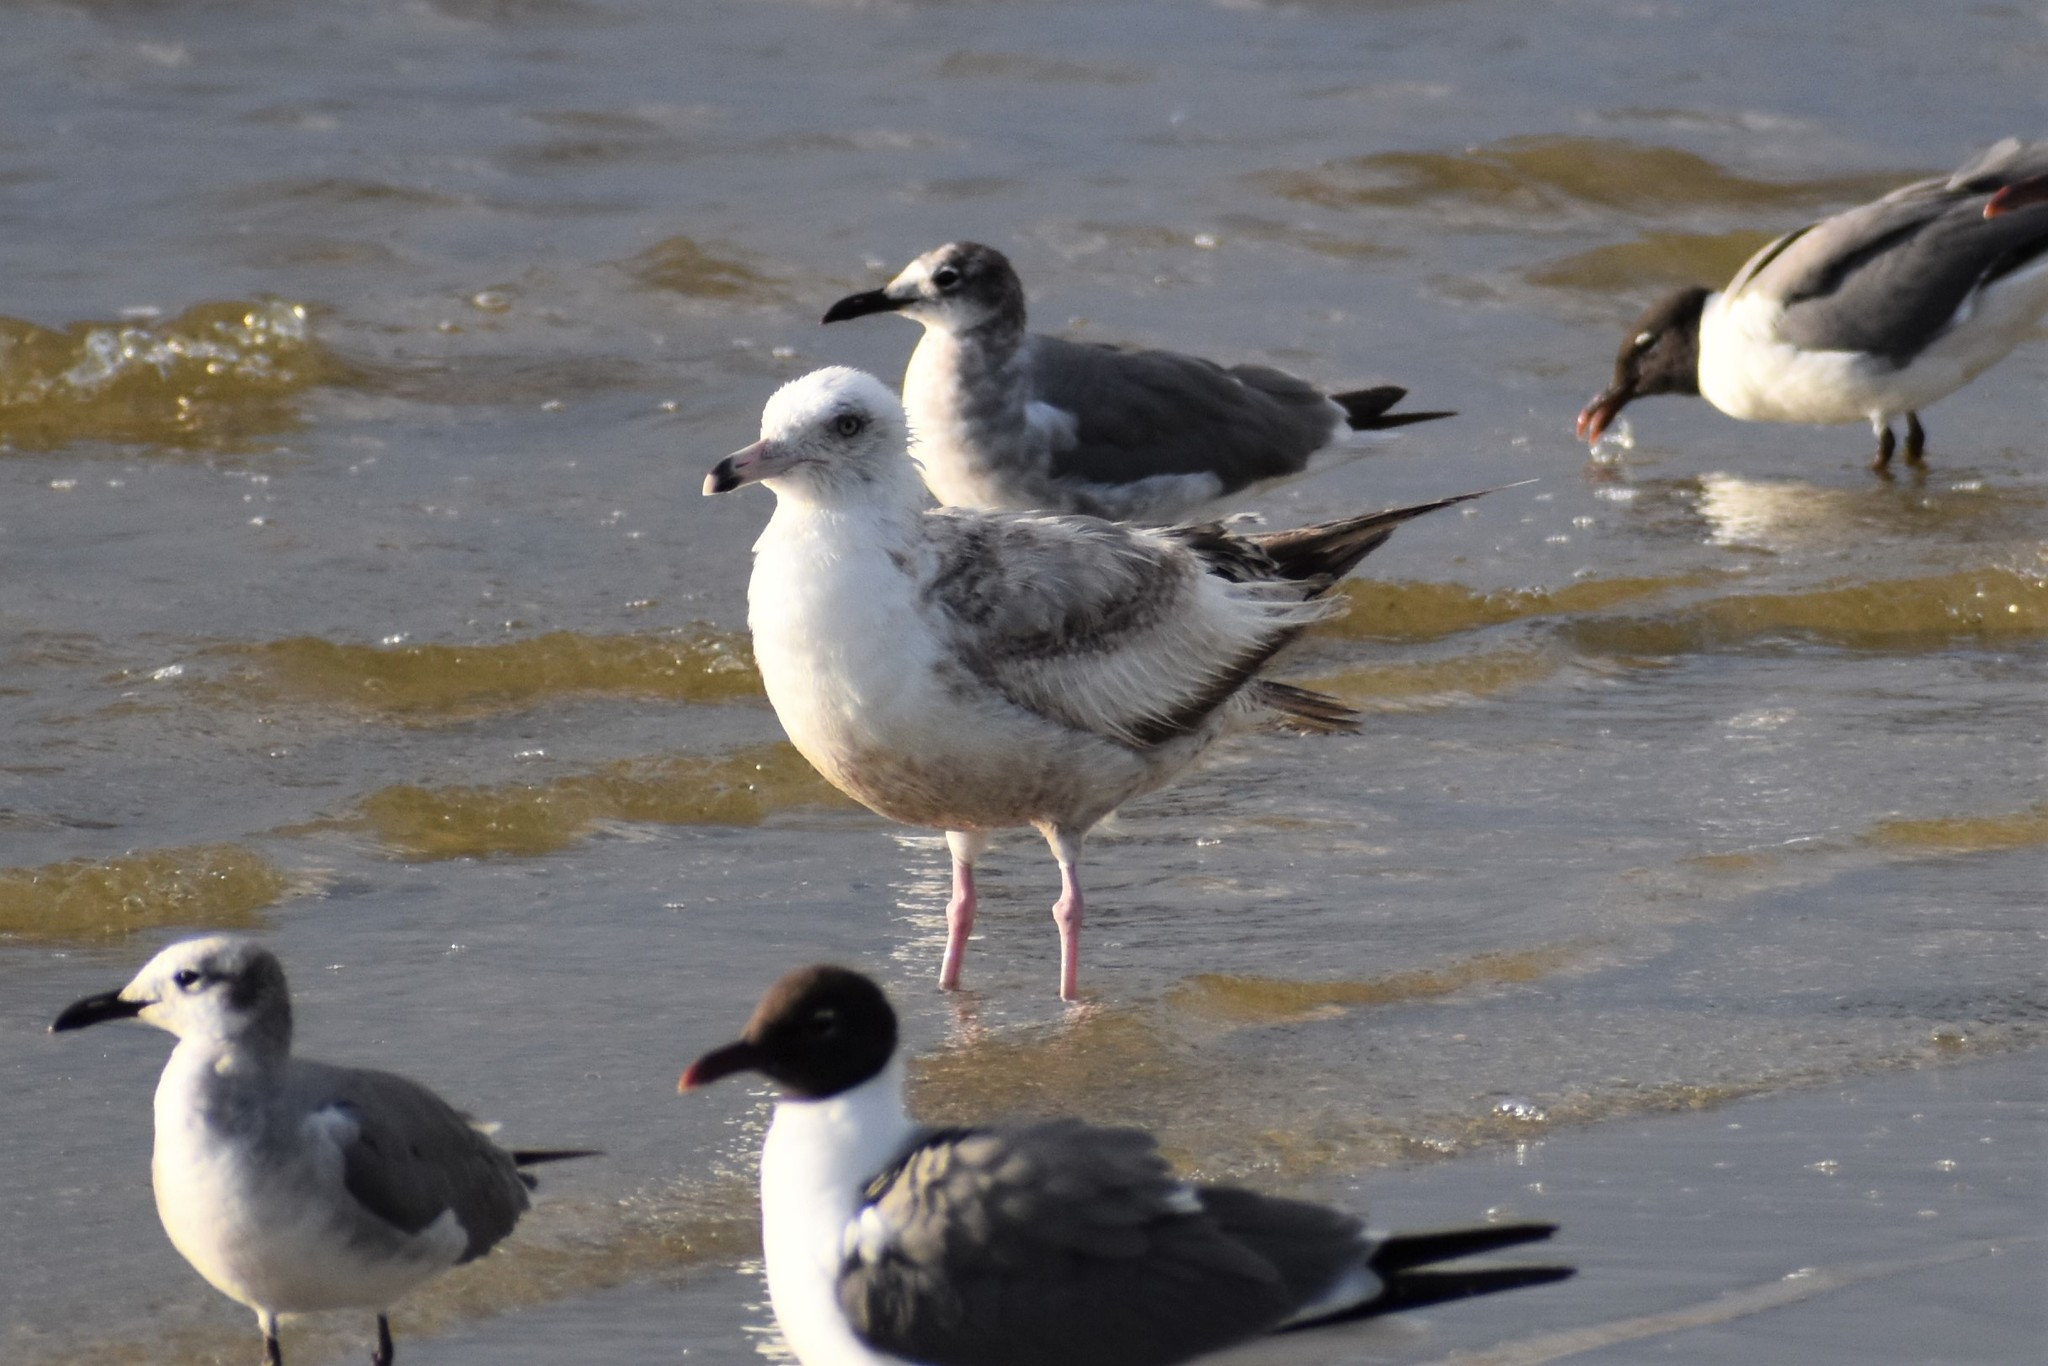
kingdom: Animalia
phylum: Chordata
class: Aves
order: Charadriiformes
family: Laridae
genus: Larus
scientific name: Larus delawarensis
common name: Ring-billed gull
